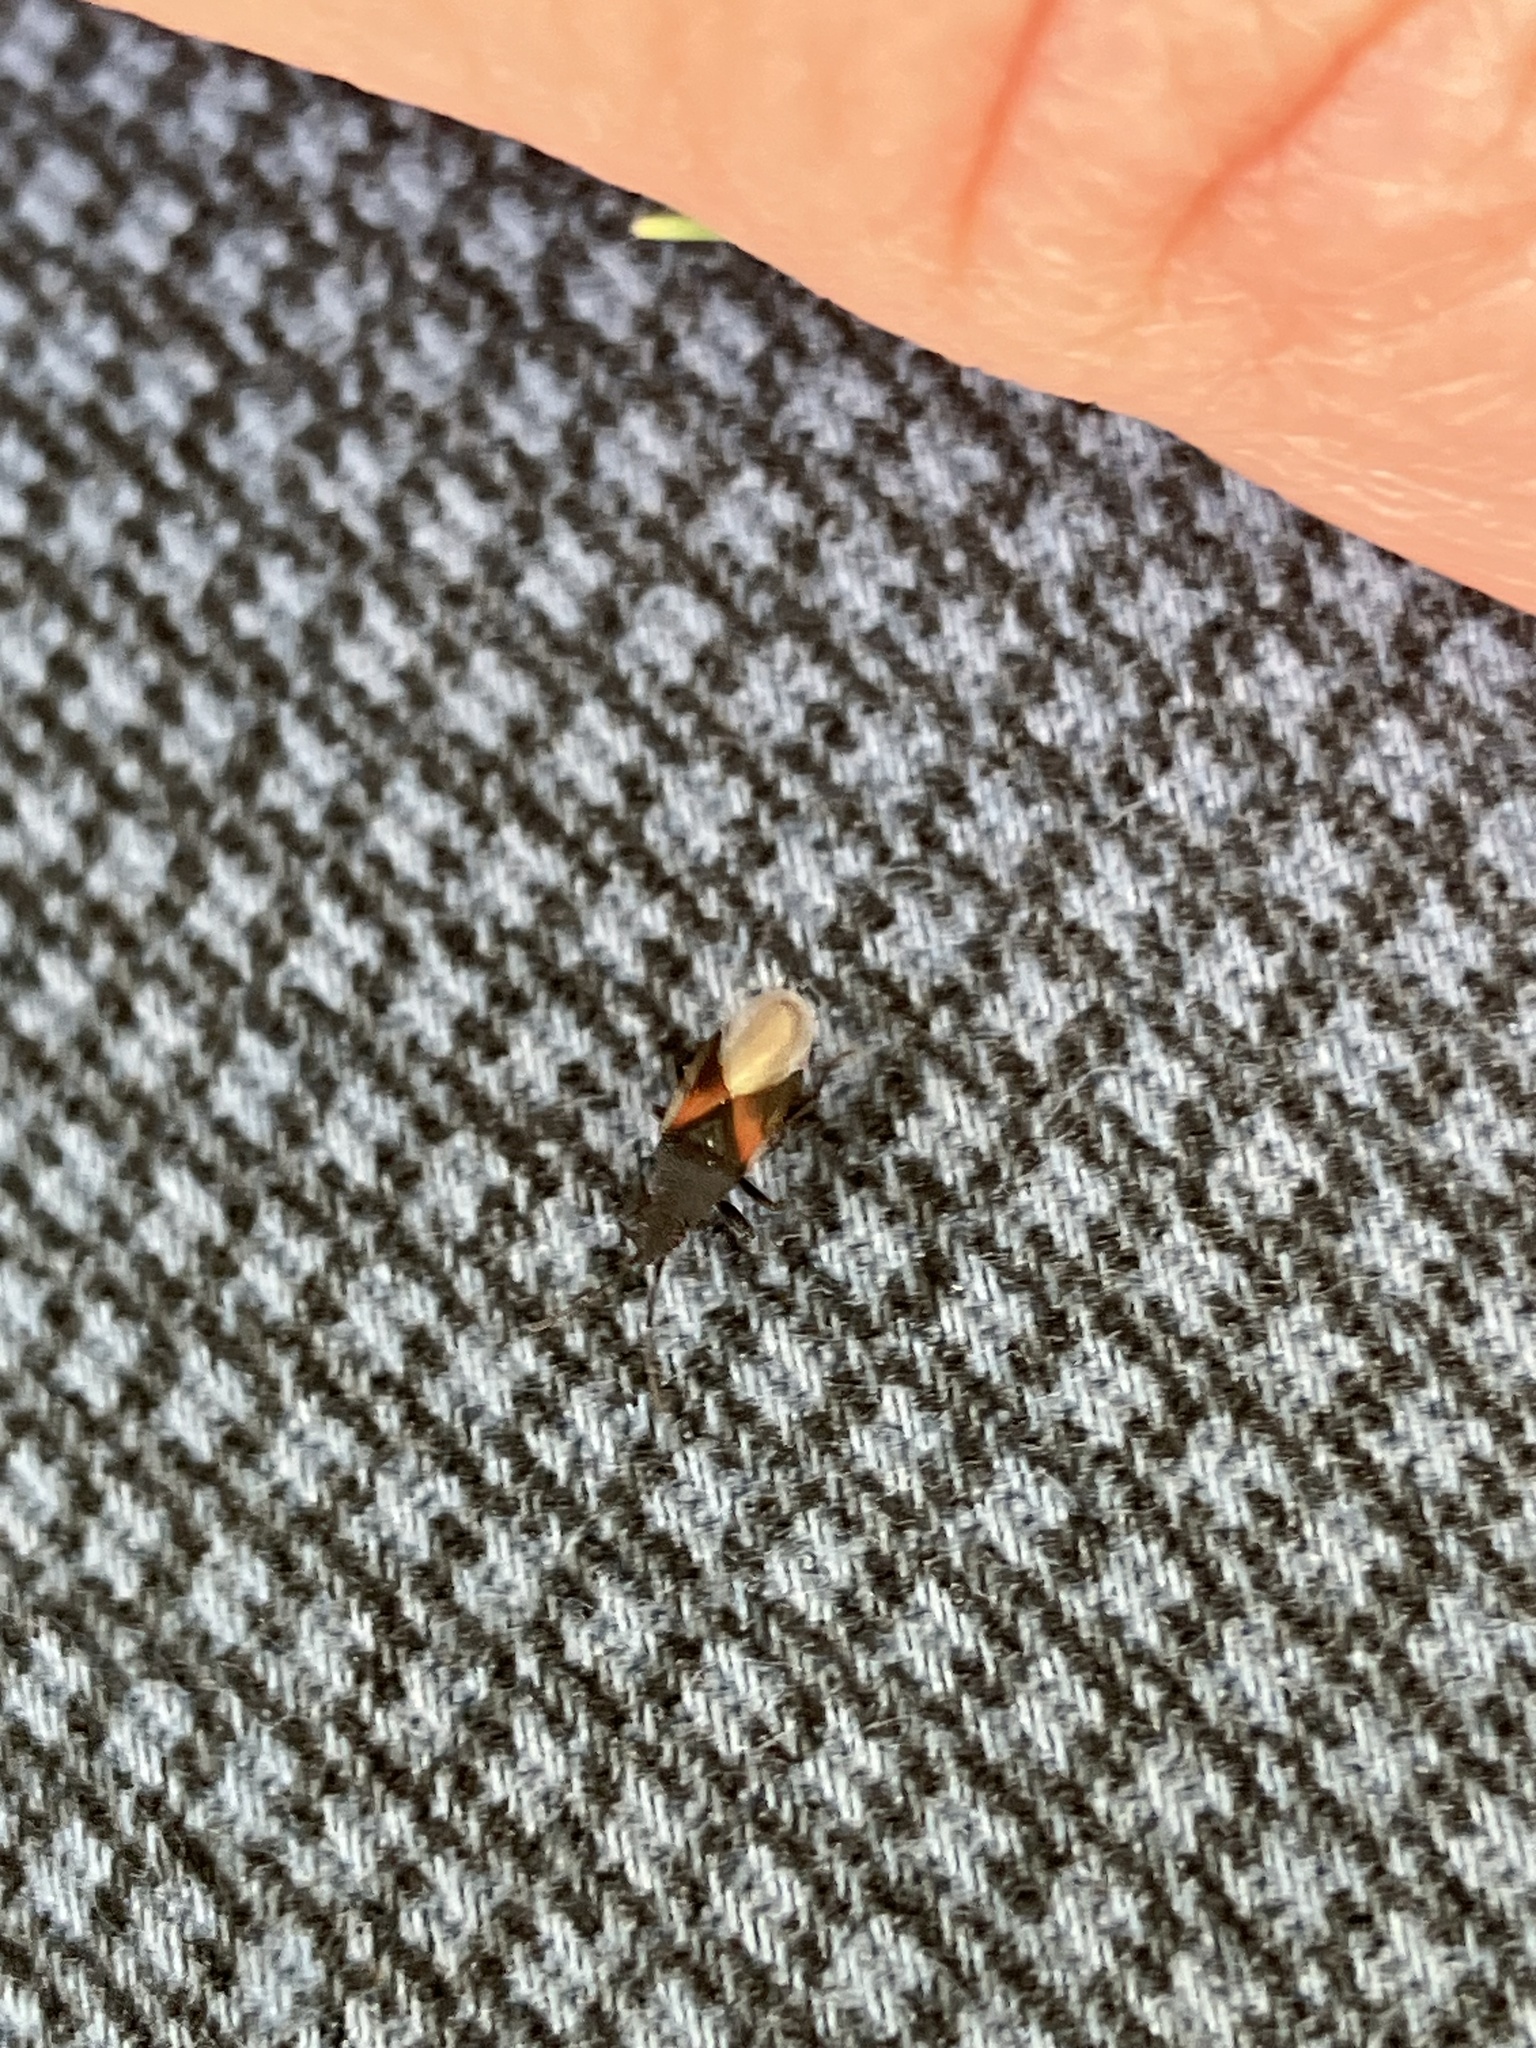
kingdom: Animalia
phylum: Arthropoda
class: Insecta
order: Hemiptera
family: Oxycarenidae
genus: Oxycarenus
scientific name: Oxycarenus lavaterae
